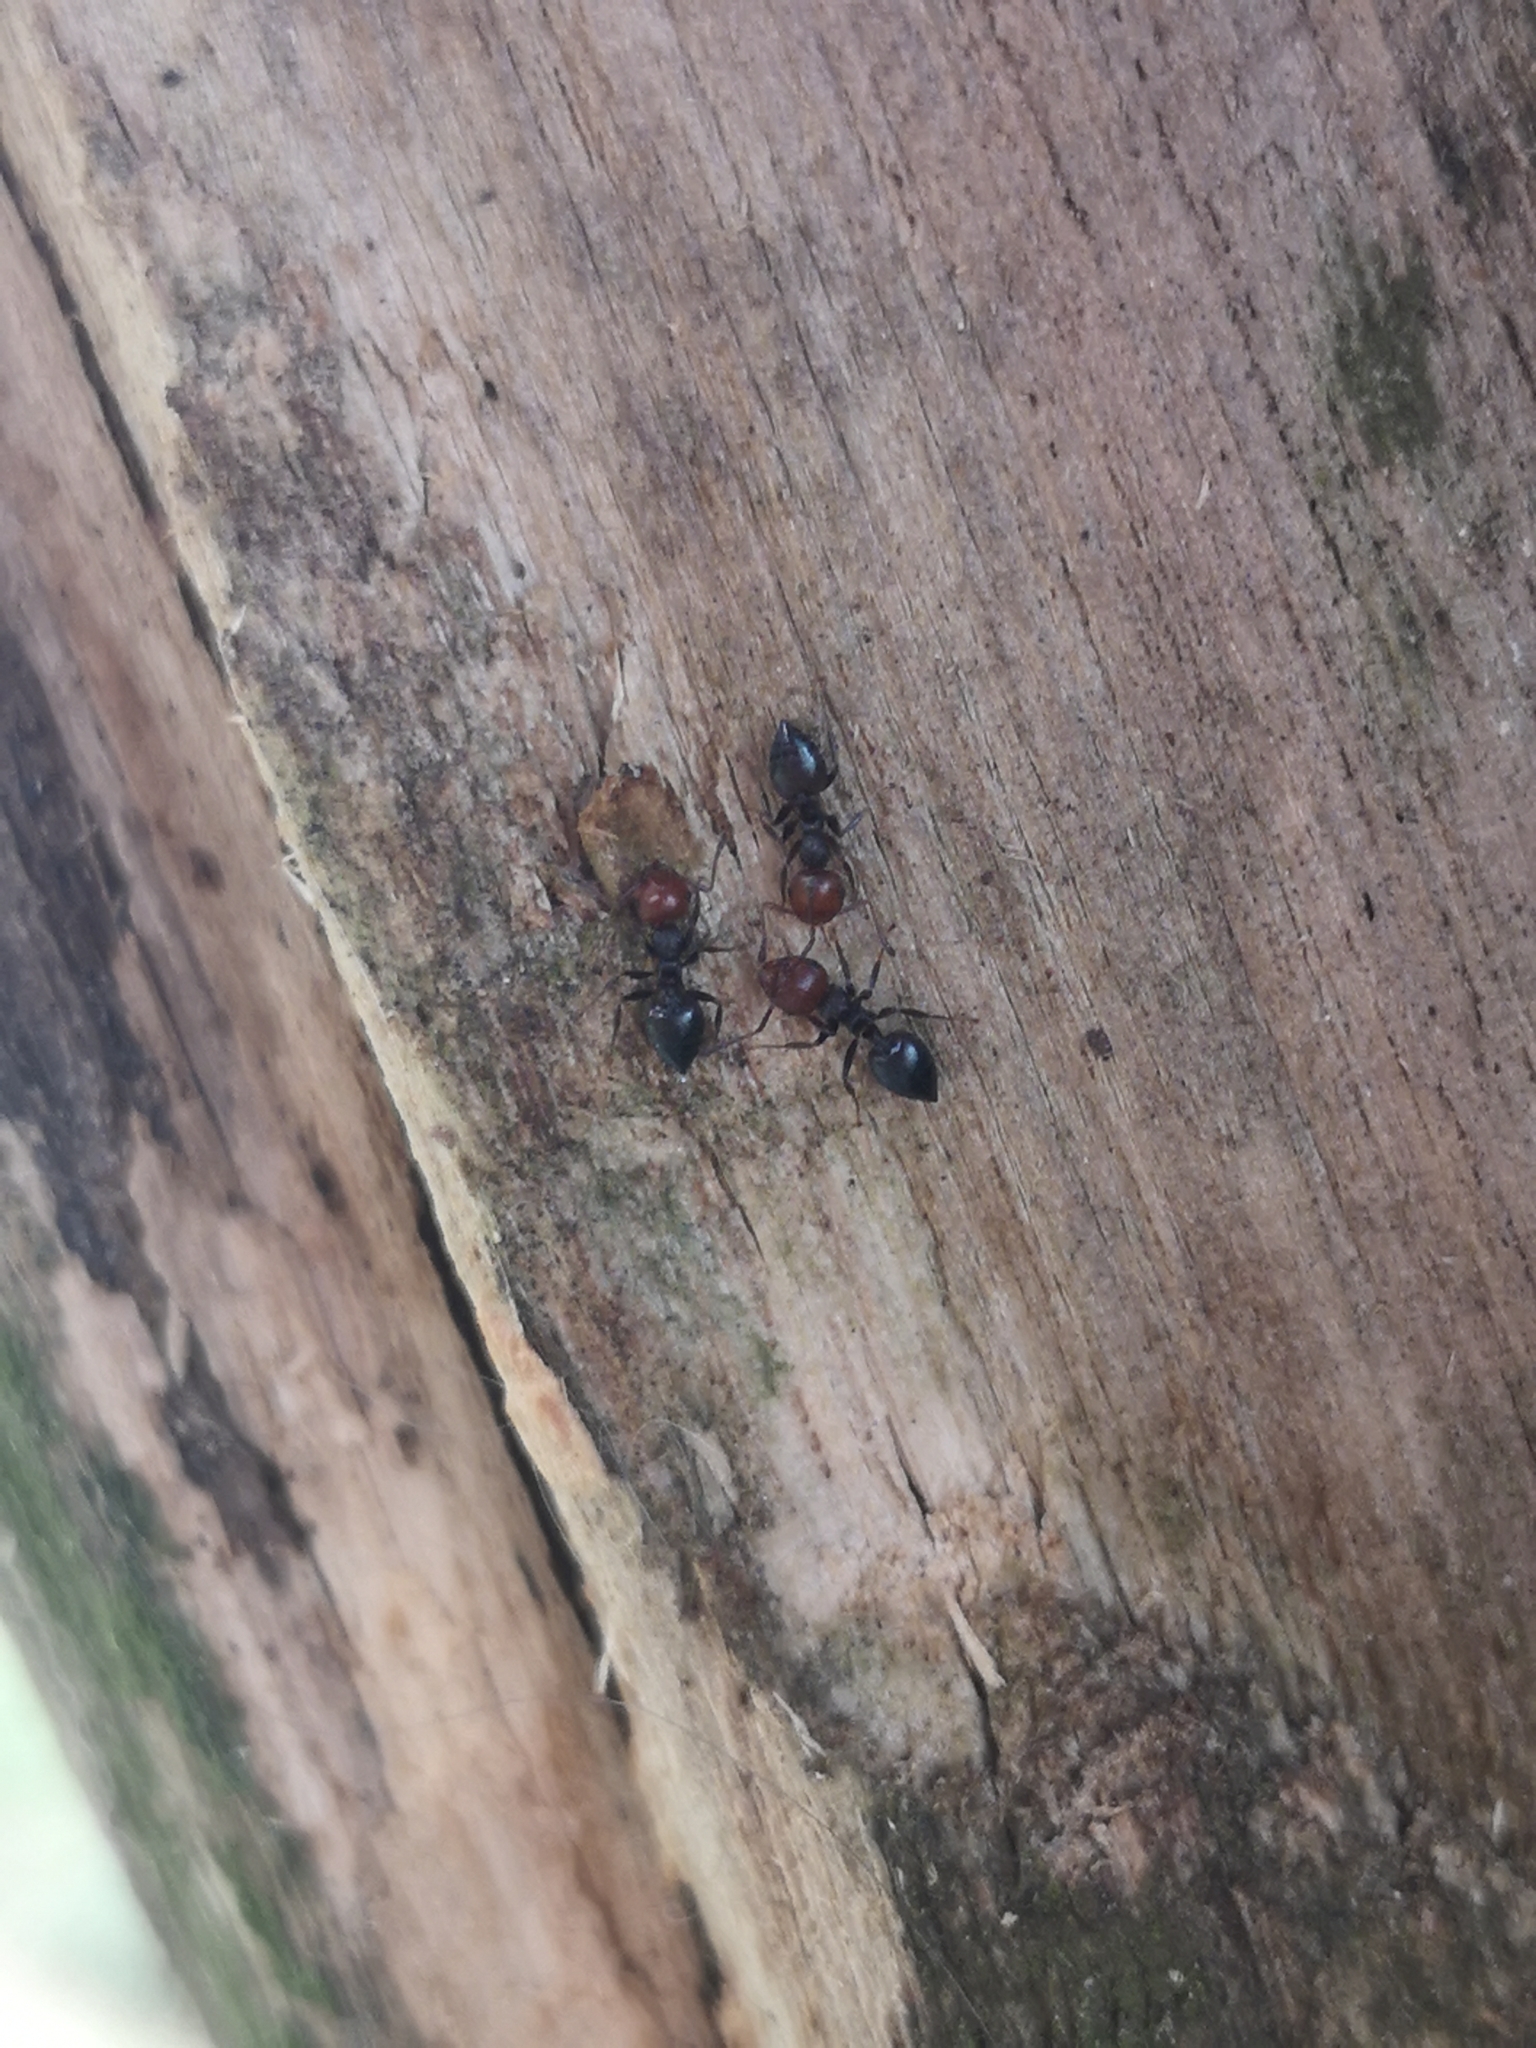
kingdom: Animalia
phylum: Arthropoda
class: Insecta
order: Hymenoptera
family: Formicidae
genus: Crematogaster
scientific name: Crematogaster scutellaris
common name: Fourmi du liège
